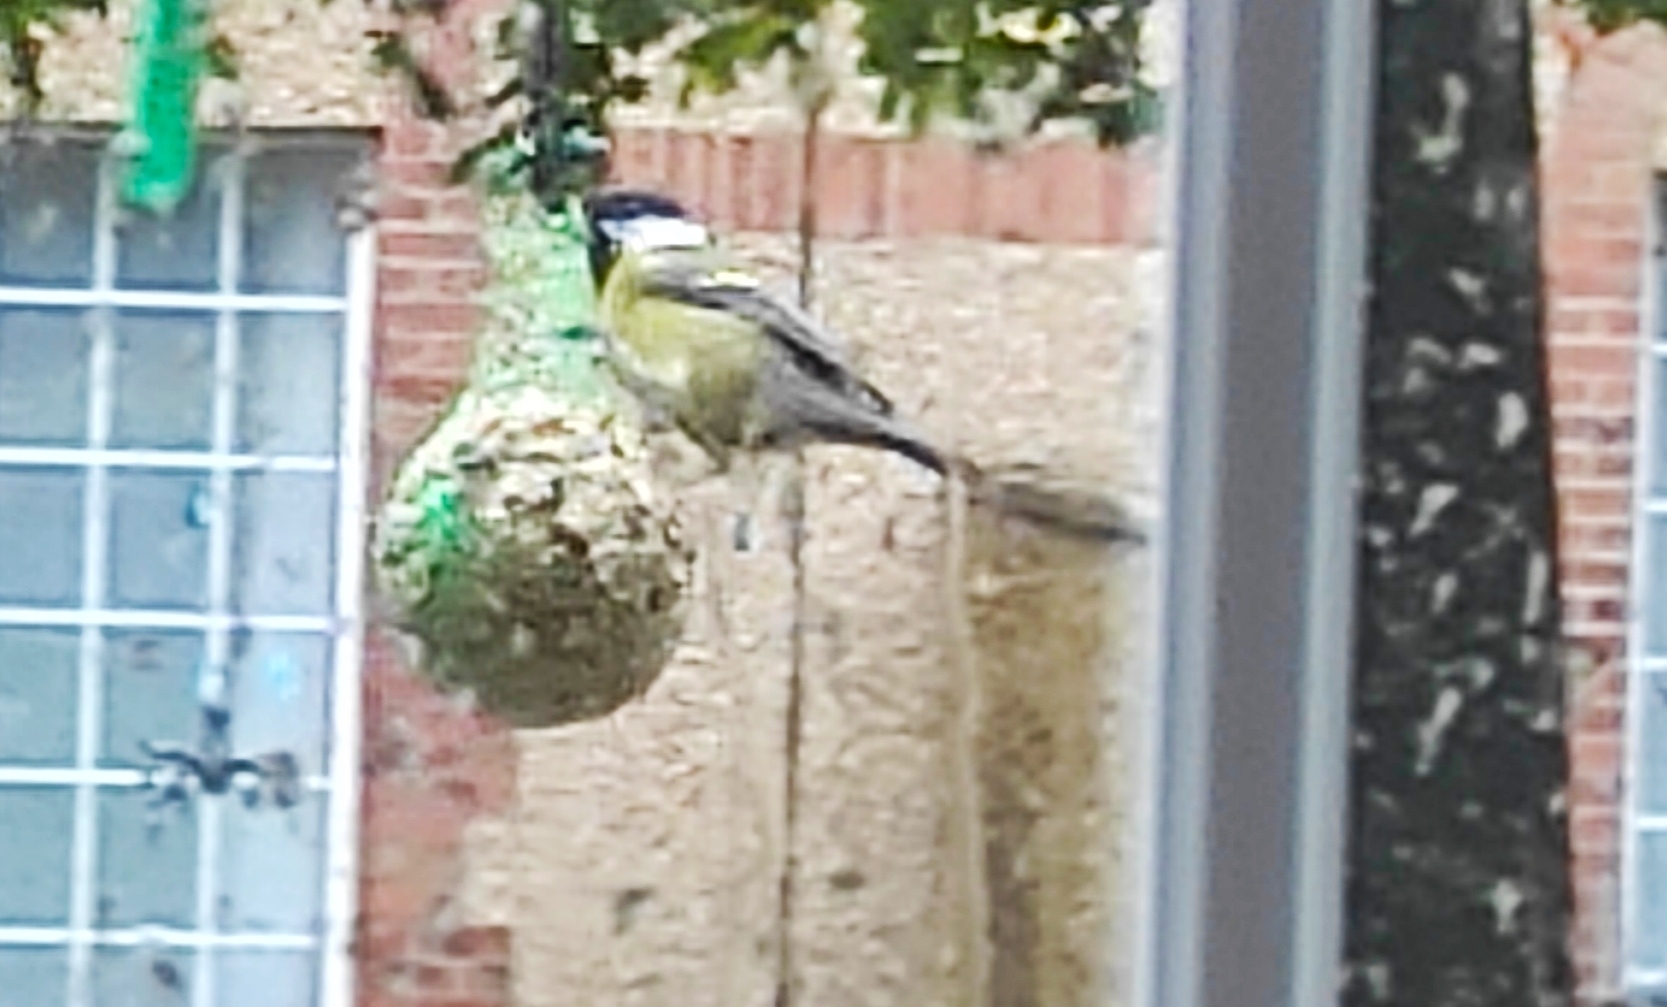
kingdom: Animalia
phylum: Chordata
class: Aves
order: Passeriformes
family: Paridae
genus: Parus
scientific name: Parus major
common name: Great tit
